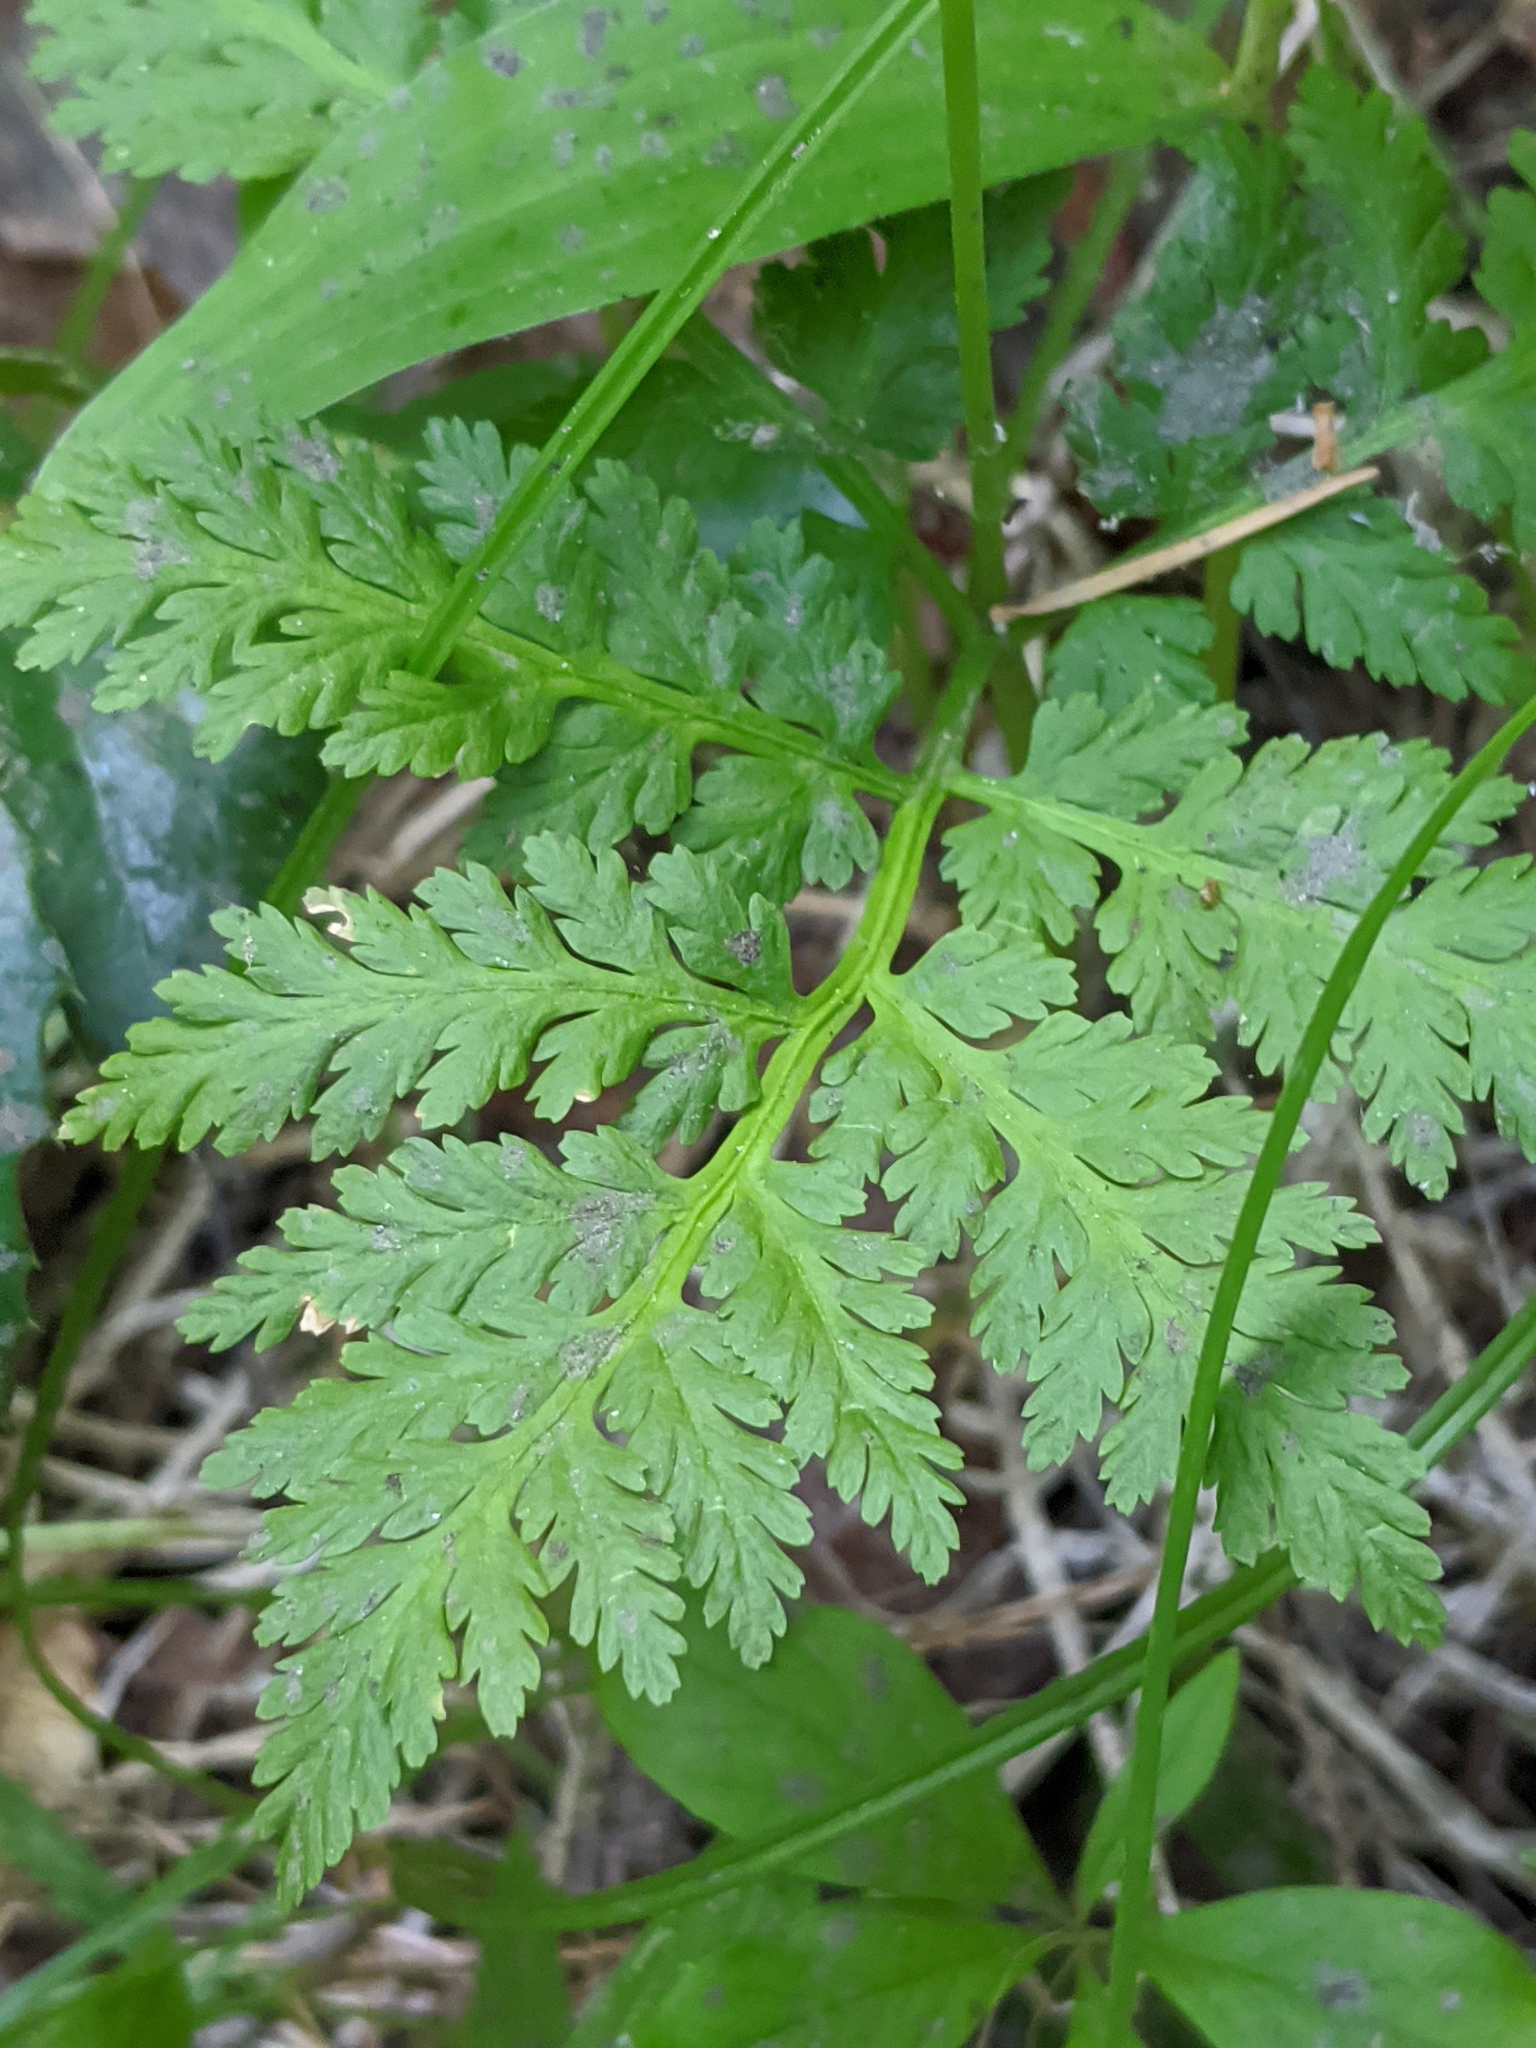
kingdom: Plantae
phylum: Tracheophyta
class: Polypodiopsida
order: Ophioglossales
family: Ophioglossaceae
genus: Botrypus
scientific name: Botrypus virginianus
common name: Common grapefern
